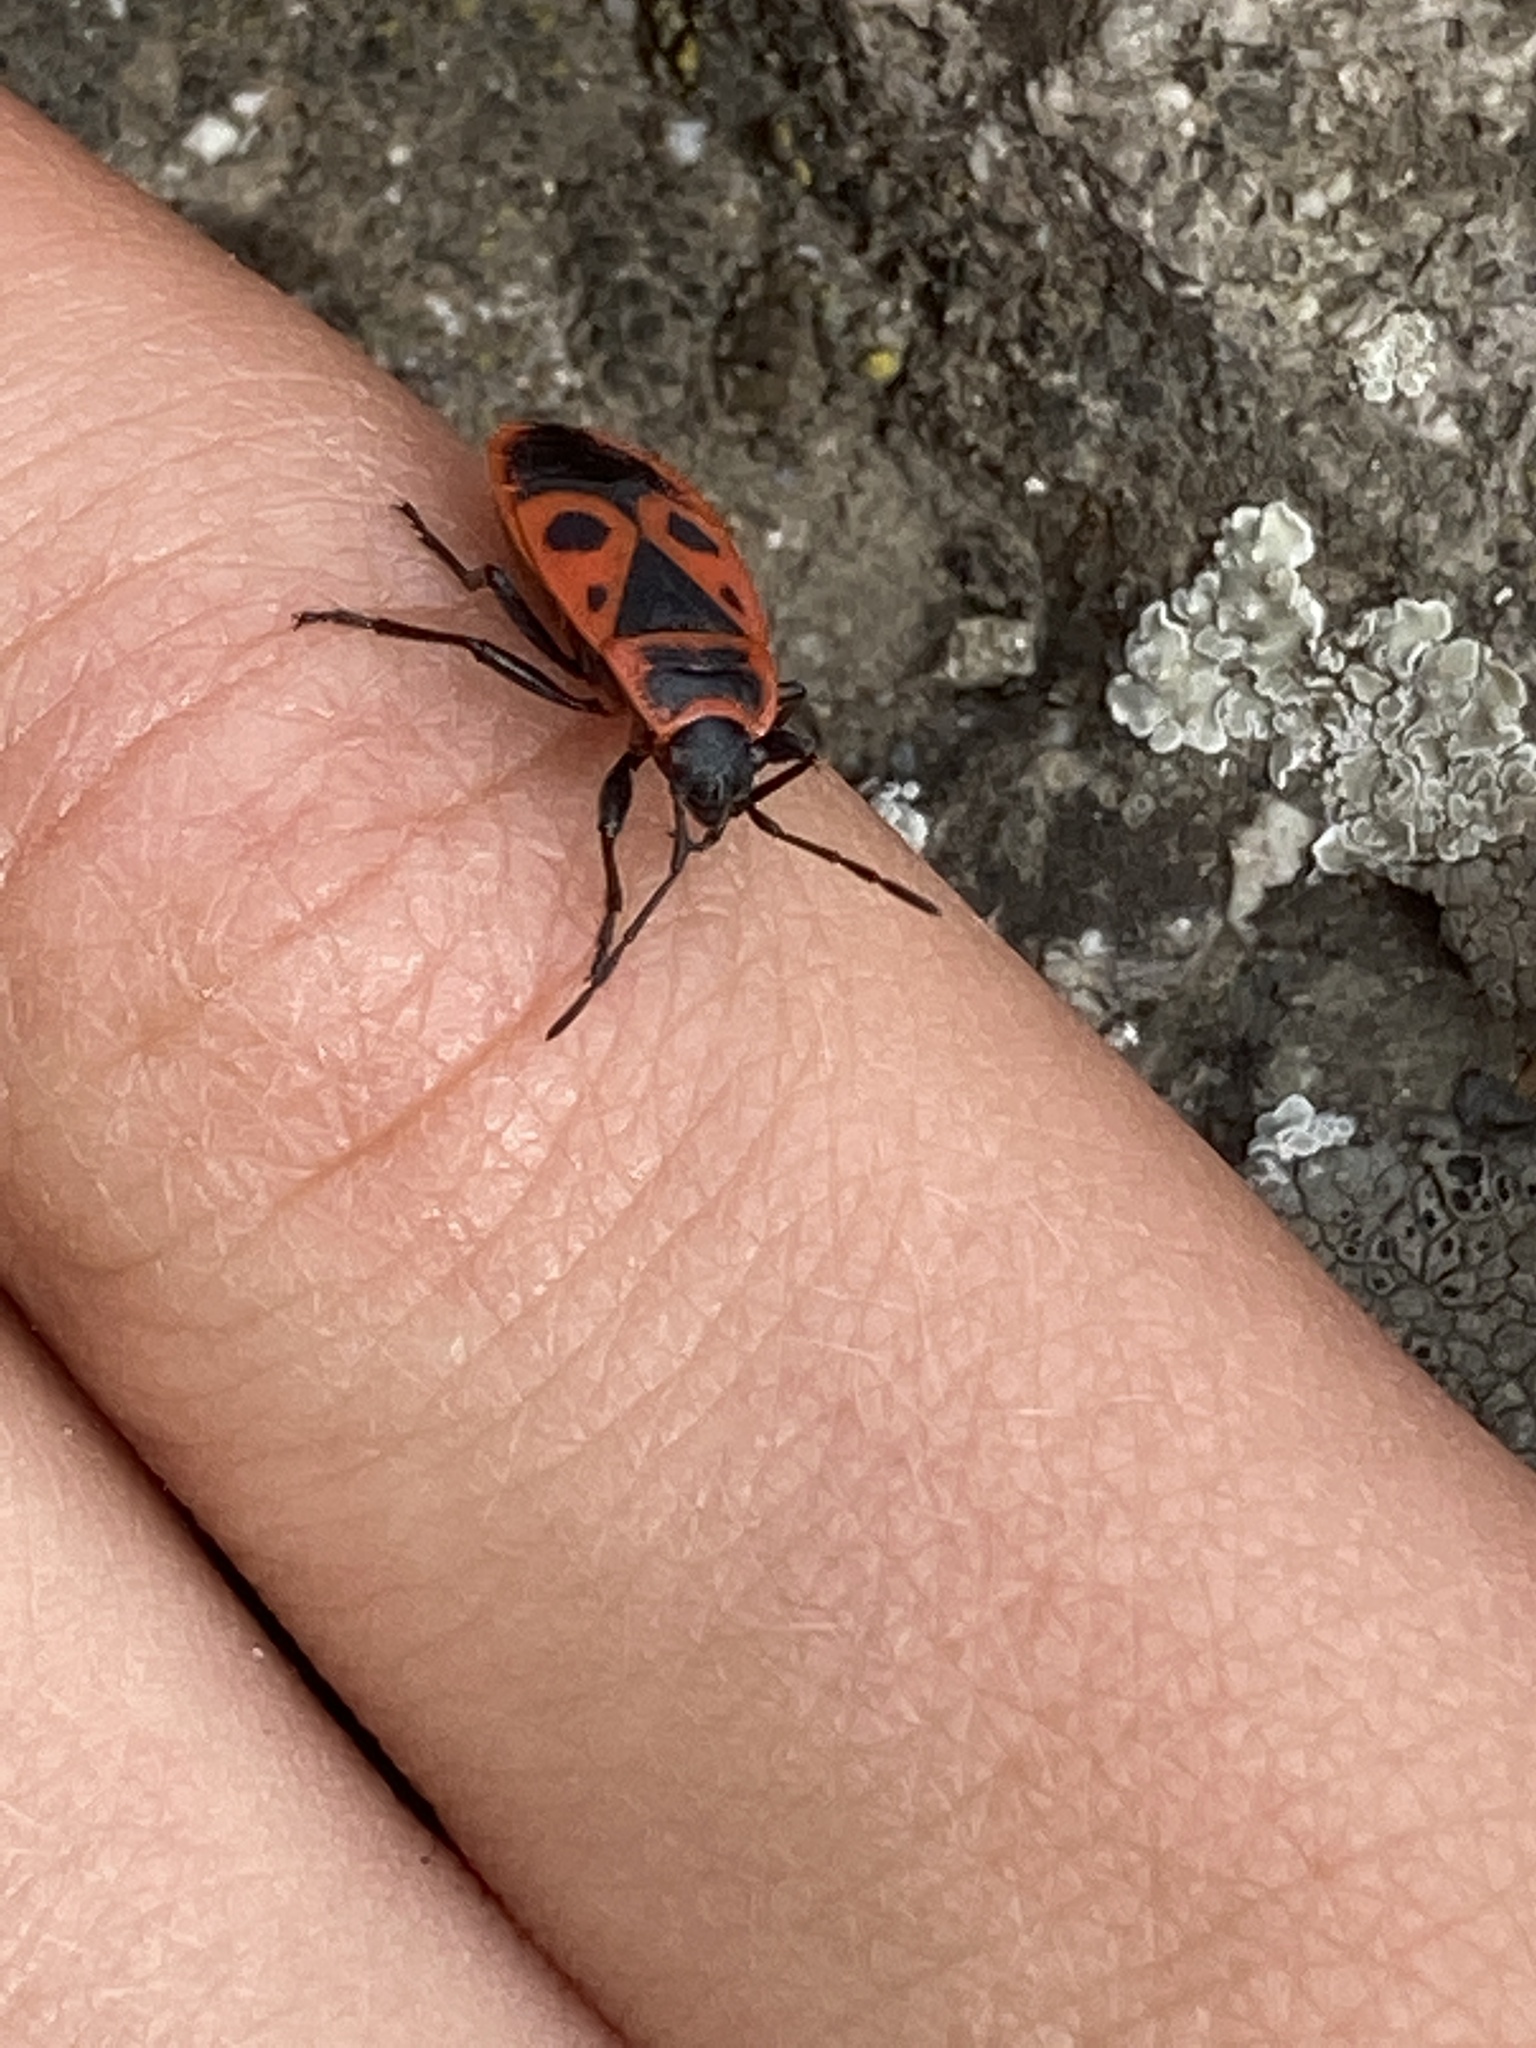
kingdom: Animalia
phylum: Arthropoda
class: Insecta
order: Hemiptera
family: Pyrrhocoridae
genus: Pyrrhocoris
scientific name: Pyrrhocoris apterus
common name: Firebug
